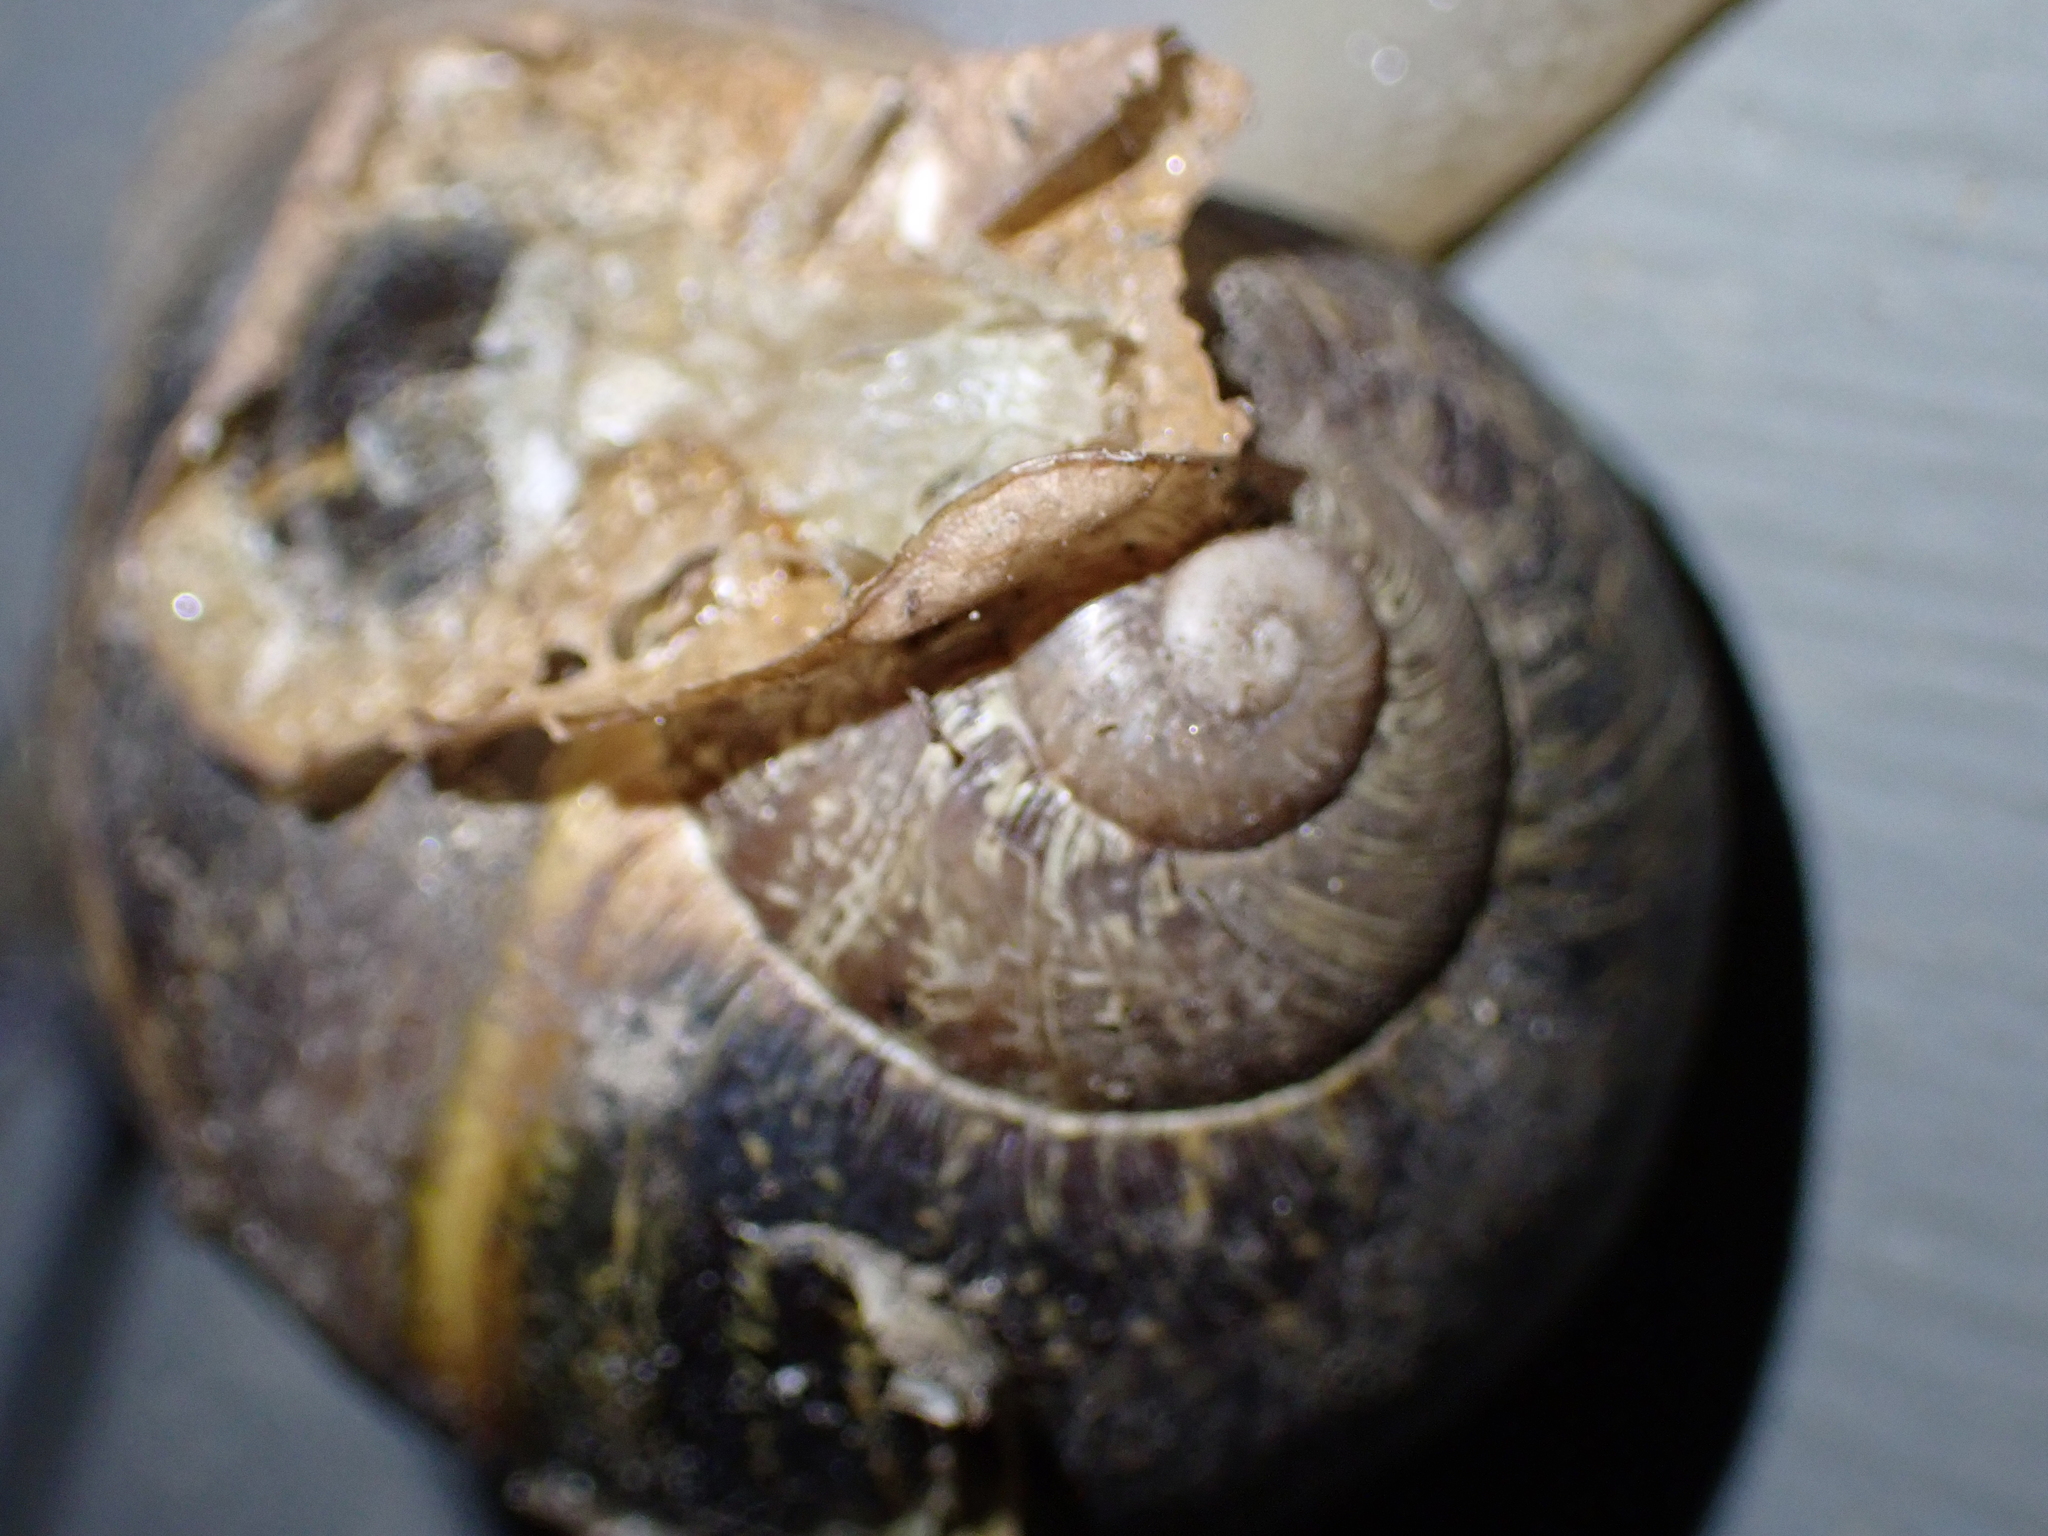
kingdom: Animalia
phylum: Mollusca
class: Gastropoda
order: Stylommatophora
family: Helicidae
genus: Cornu
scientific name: Cornu aspersum
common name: Brown garden snail
